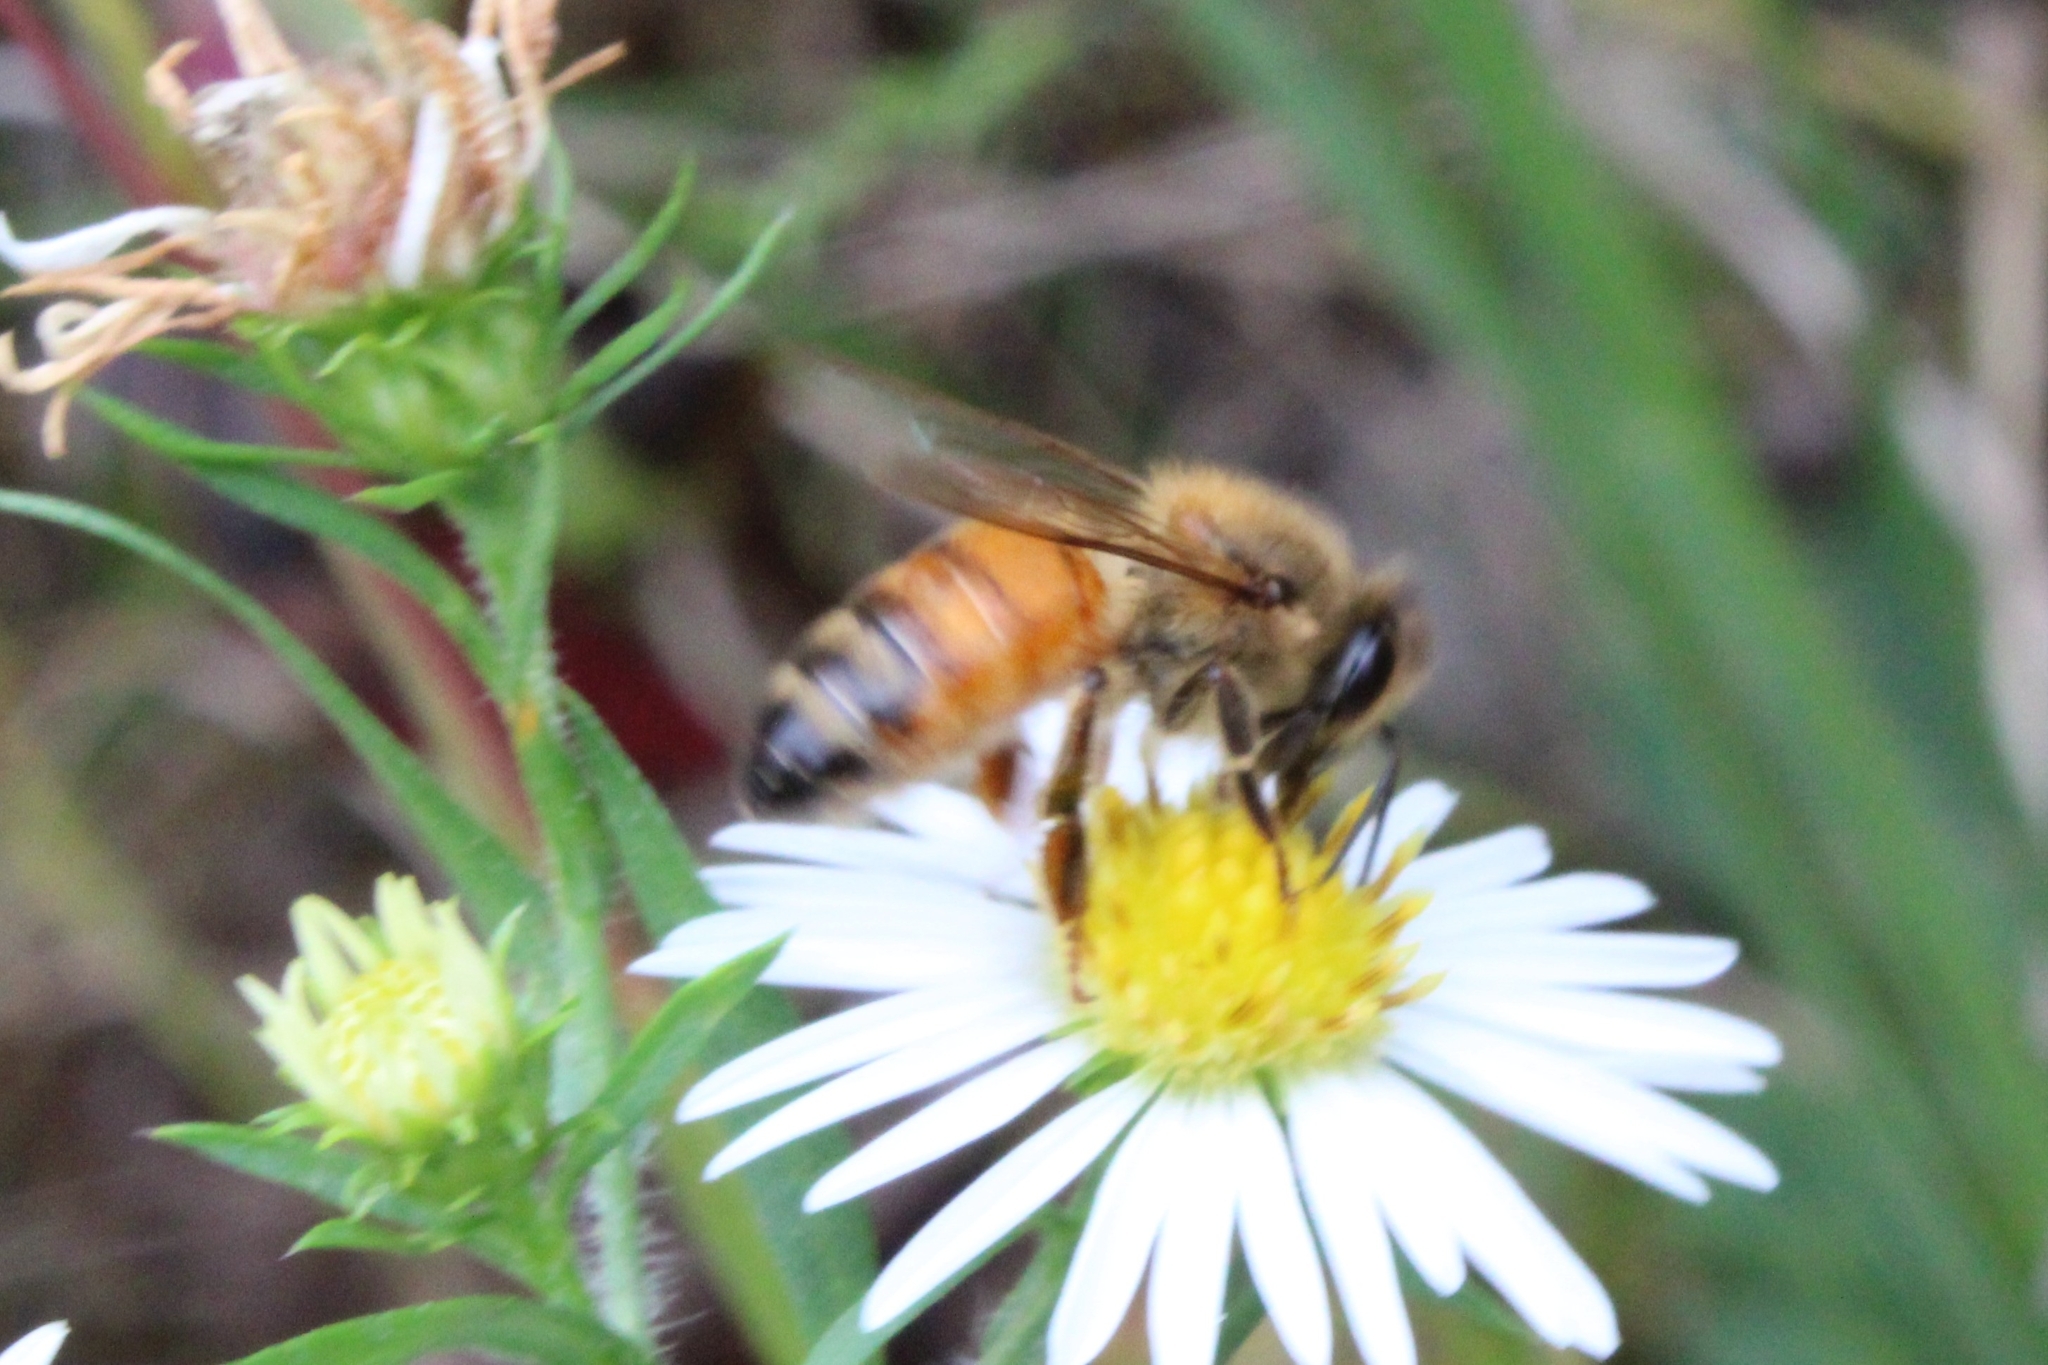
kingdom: Animalia
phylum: Arthropoda
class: Insecta
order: Hymenoptera
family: Apidae
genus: Apis
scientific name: Apis mellifera
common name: Honey bee
